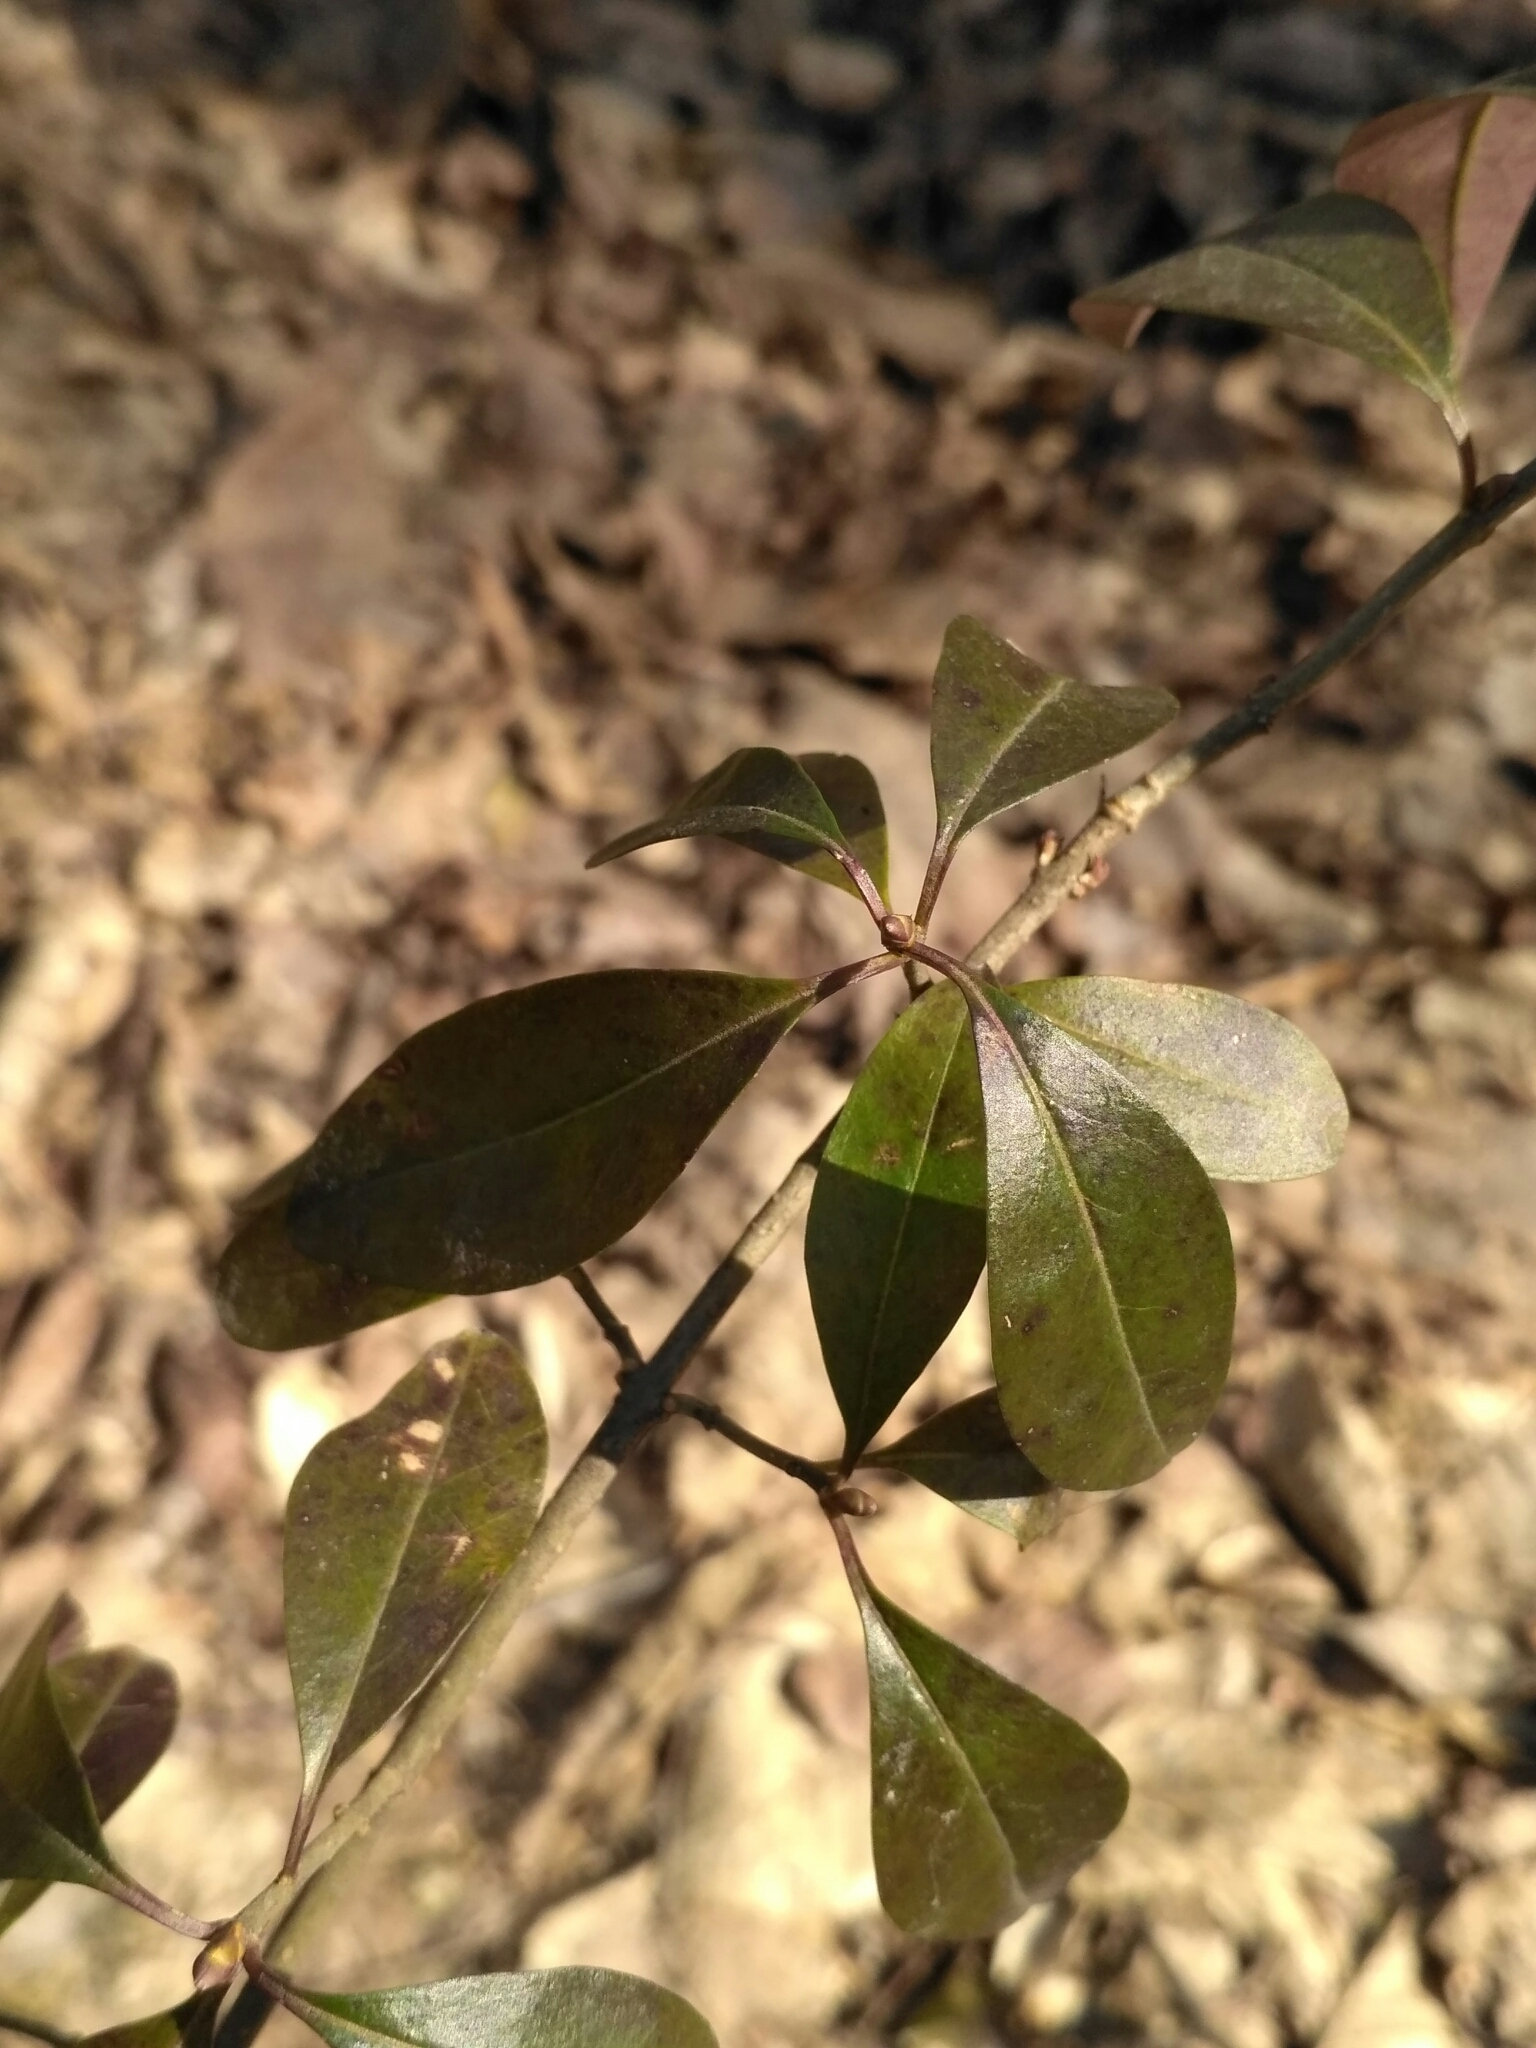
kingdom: Plantae
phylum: Tracheophyta
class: Magnoliopsida
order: Lamiales
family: Oleaceae
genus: Ligustrum
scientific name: Ligustrum vulgare
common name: Wild privet
